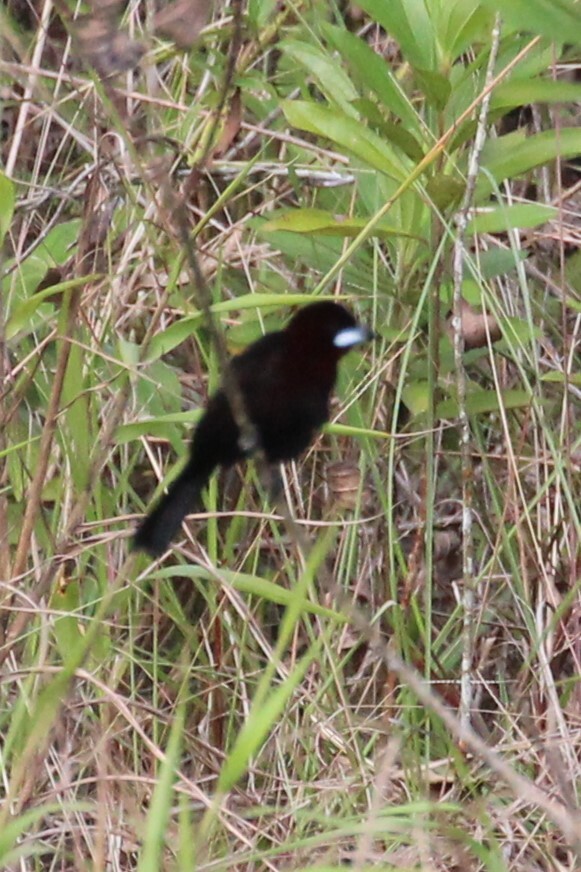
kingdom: Animalia
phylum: Chordata
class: Aves
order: Passeriformes
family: Thraupidae
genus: Ramphocelus
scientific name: Ramphocelus carbo
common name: Silver-beaked tanager
